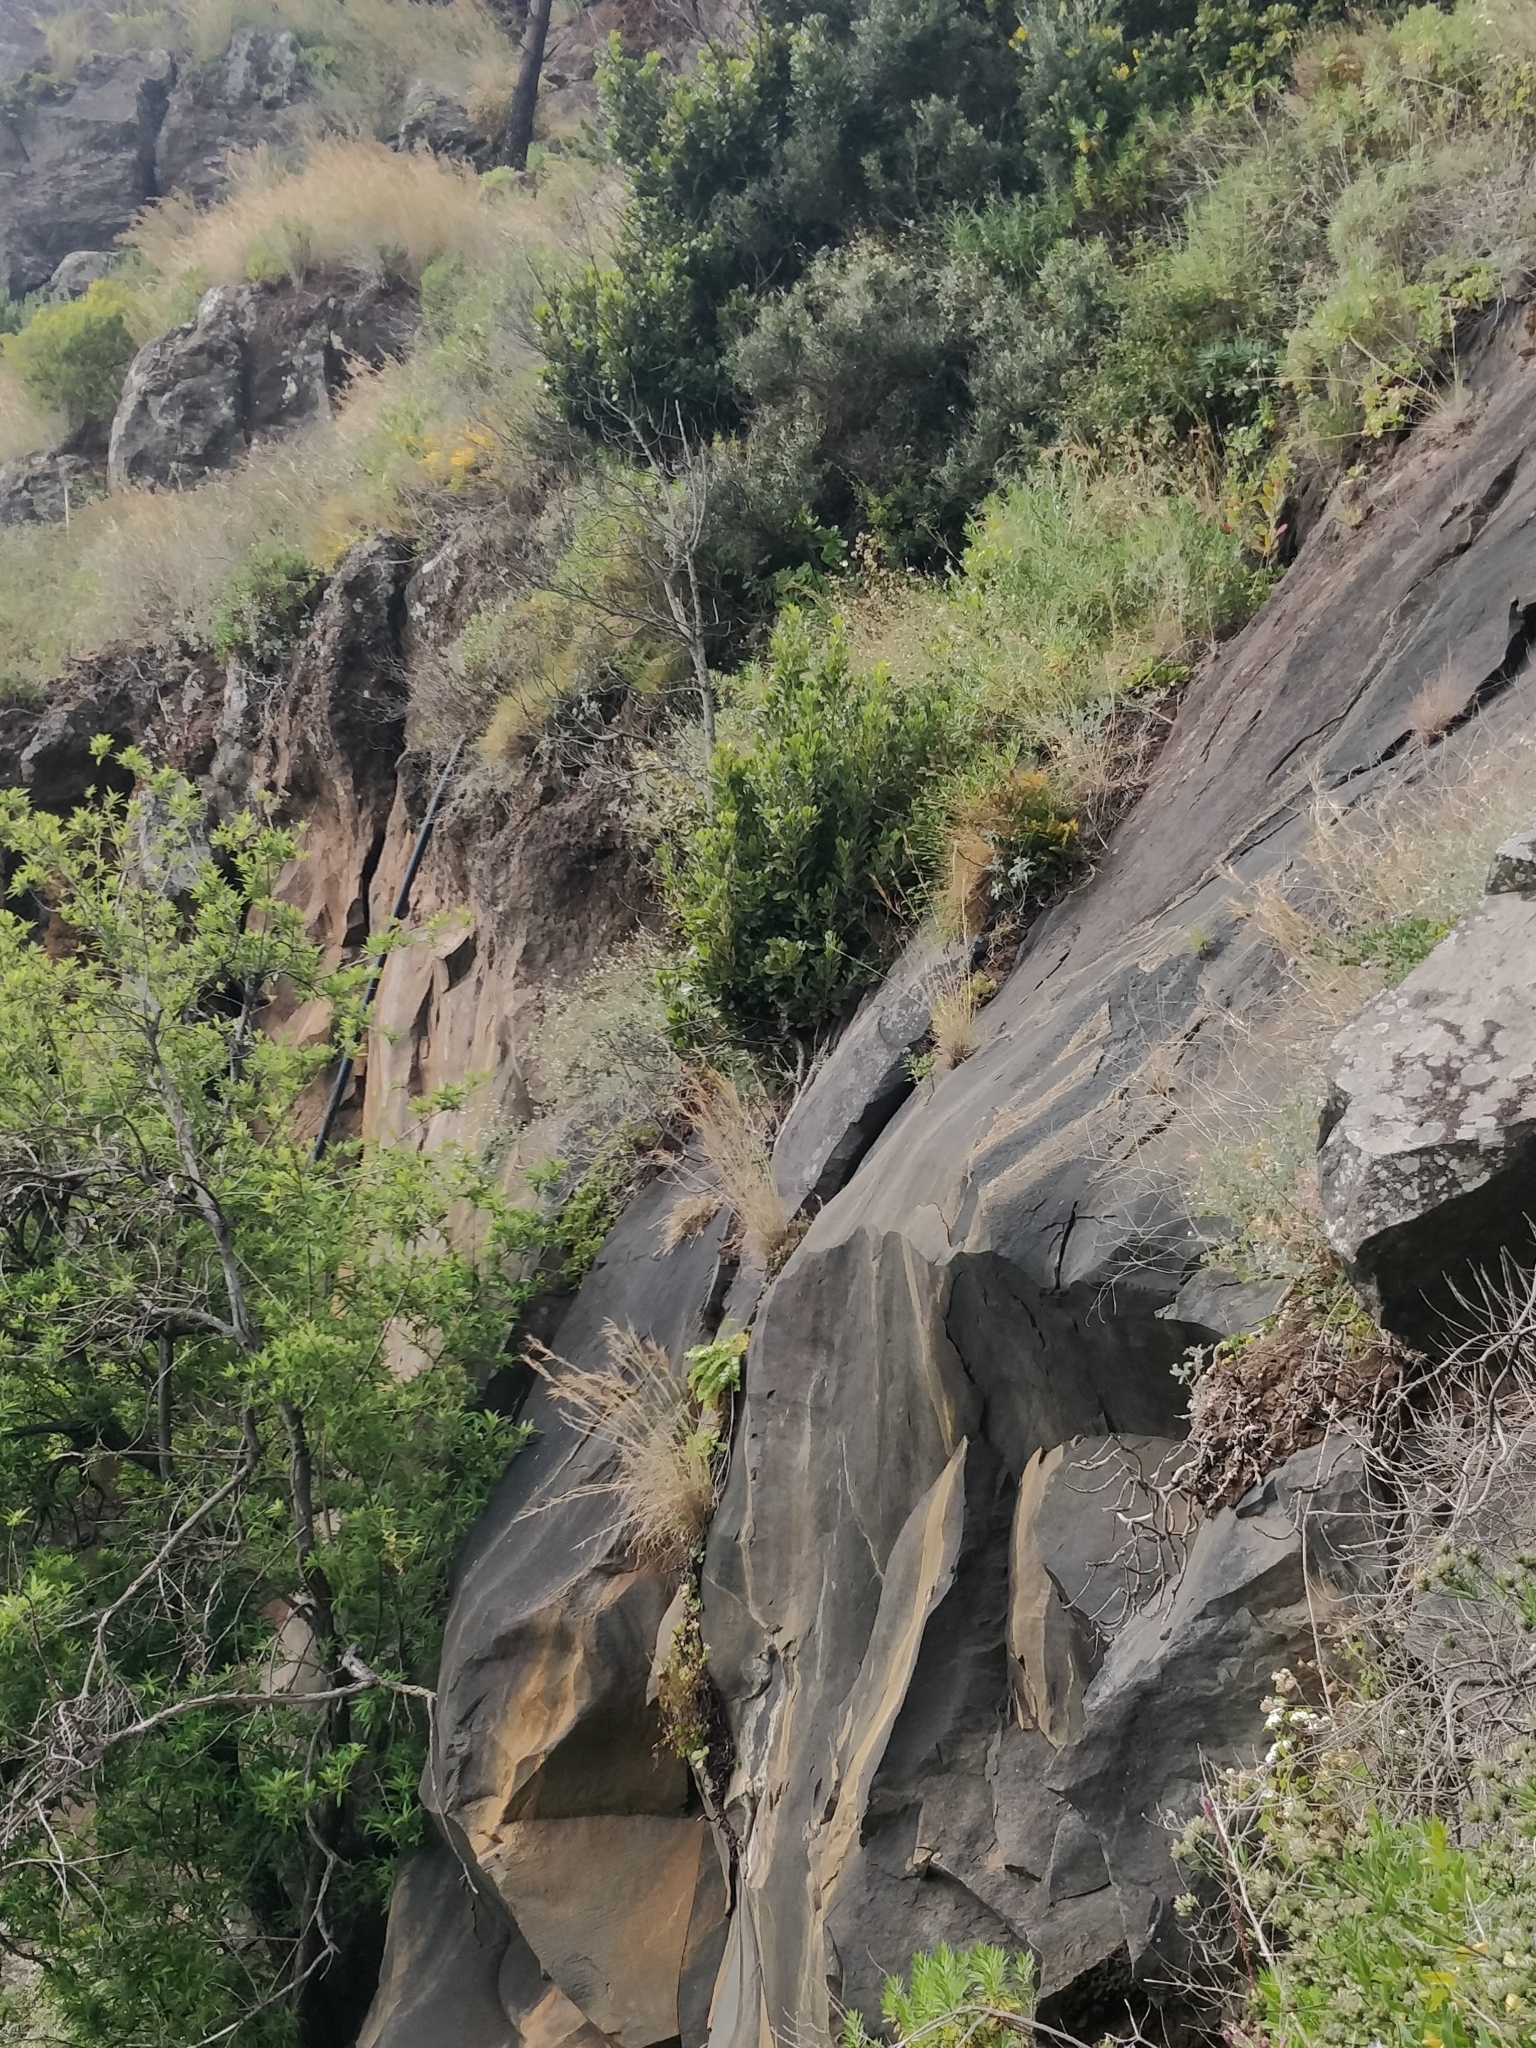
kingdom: Plantae
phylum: Tracheophyta
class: Magnoliopsida
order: Ericales
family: Sapotaceae
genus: Sideroxylon
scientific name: Sideroxylon mirmulans
